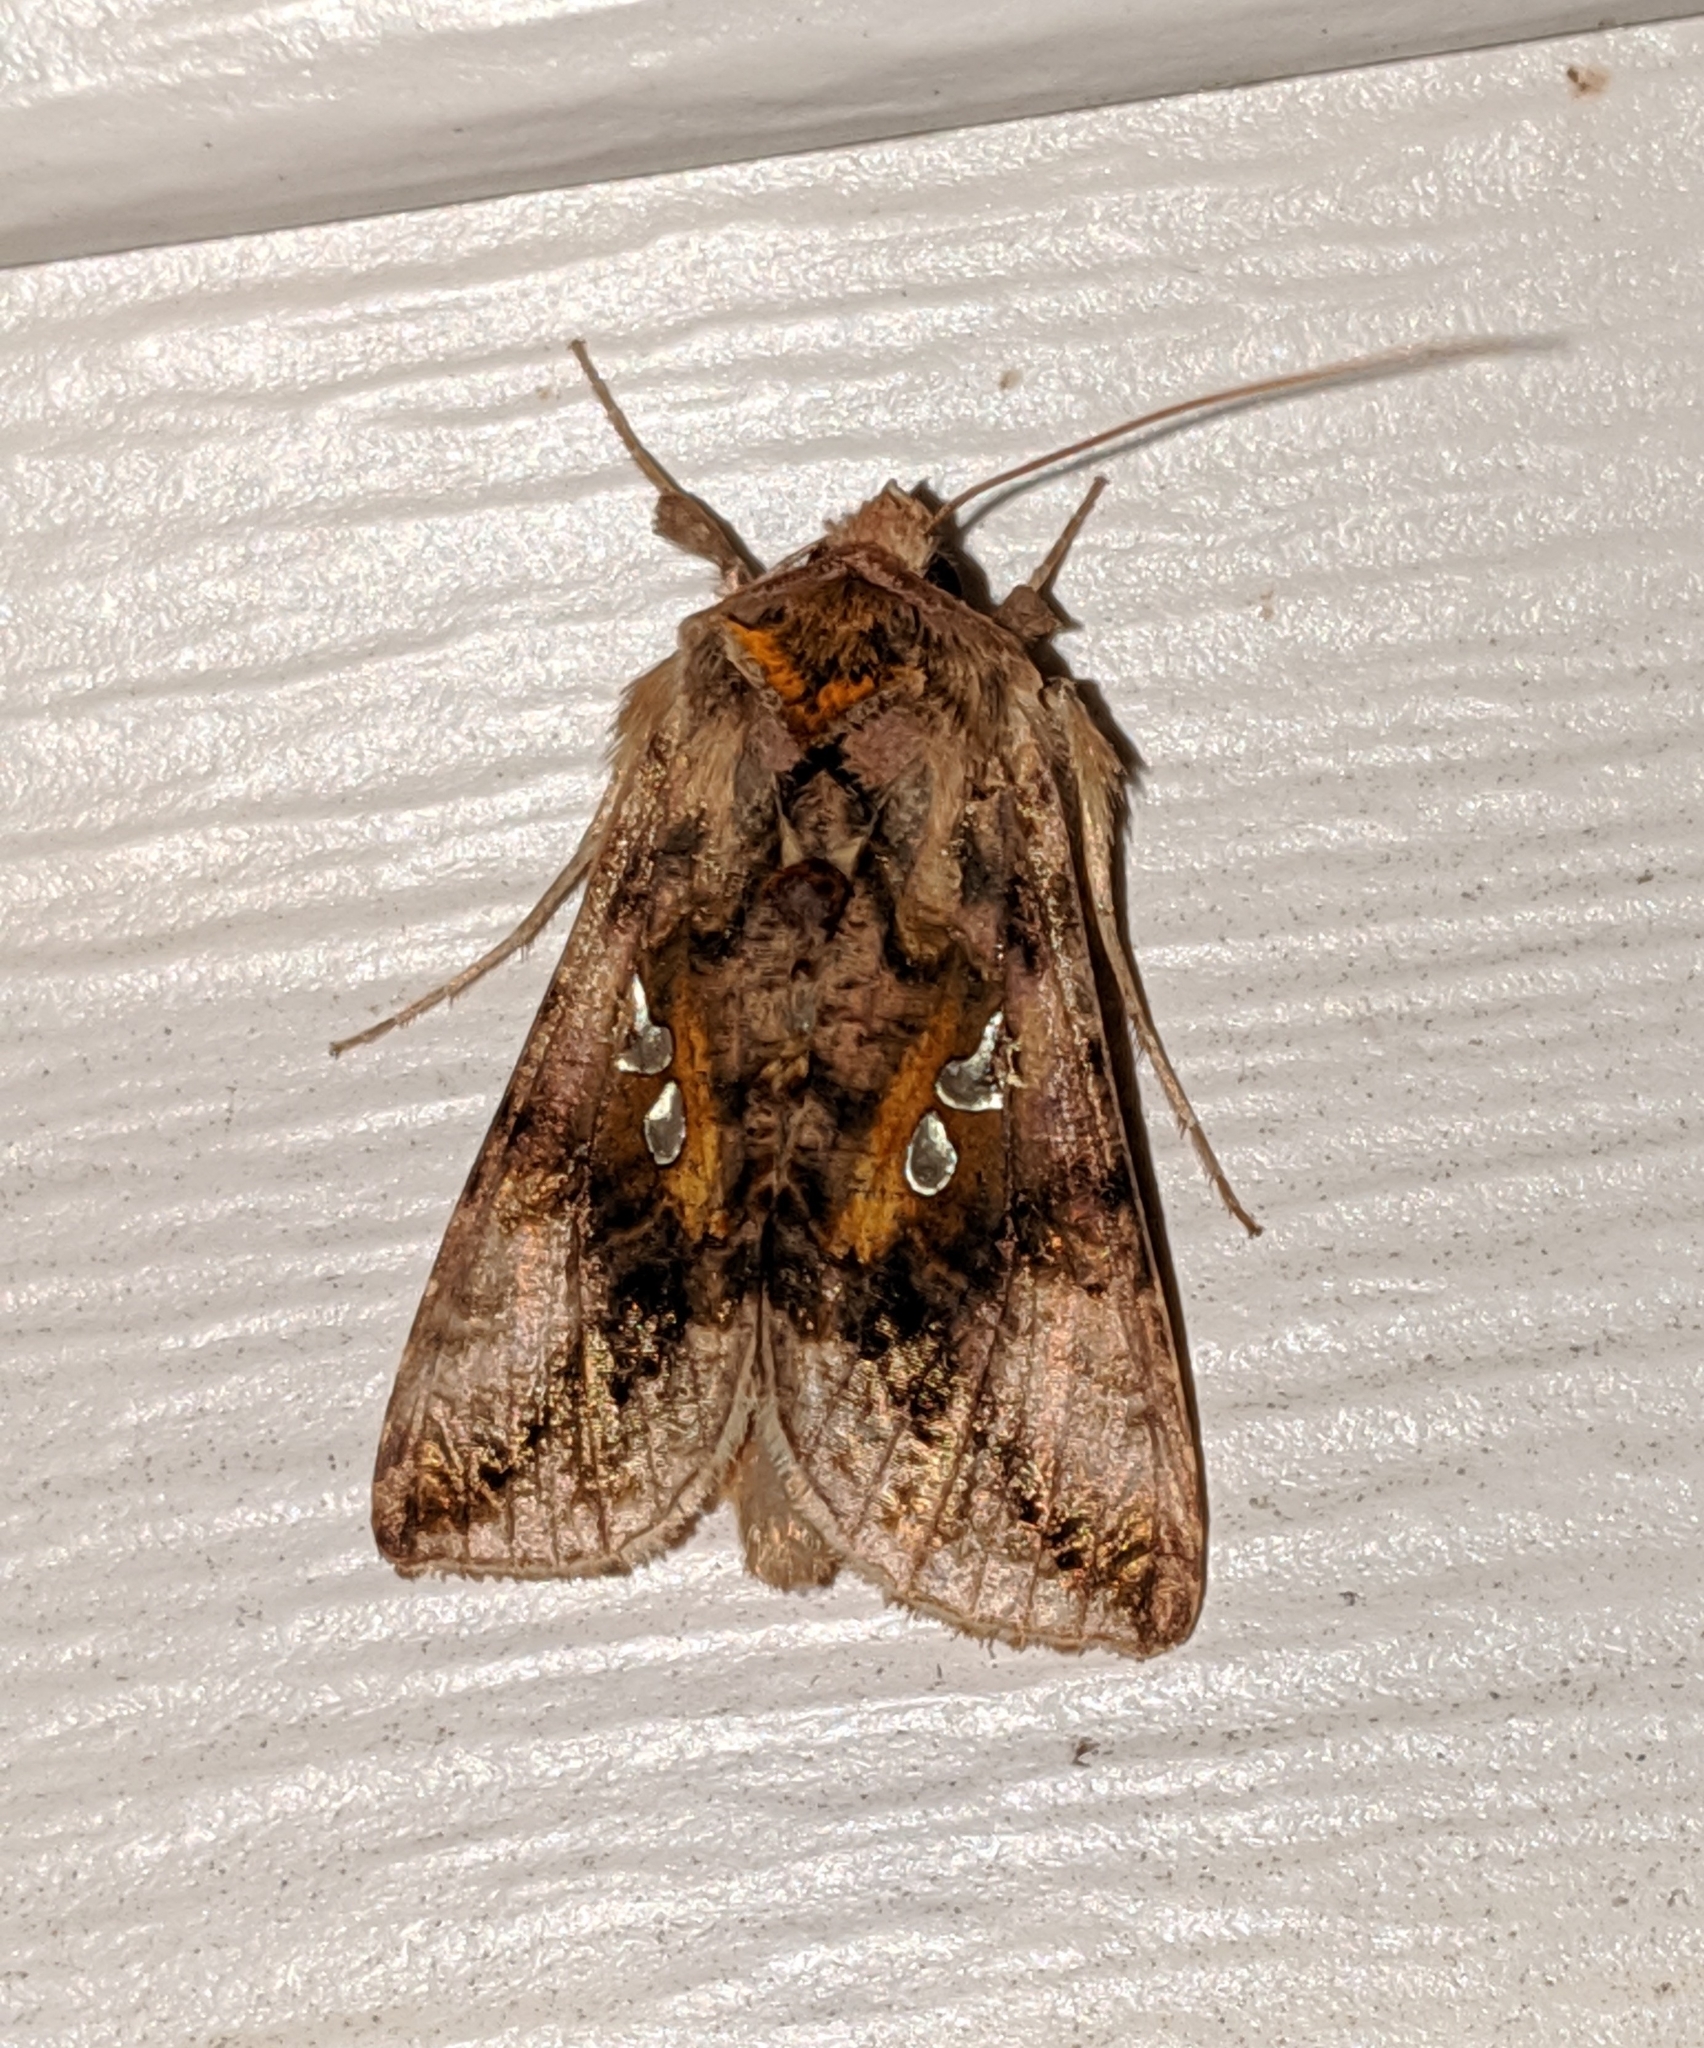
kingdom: Animalia
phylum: Arthropoda
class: Insecta
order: Lepidoptera
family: Noctuidae
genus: Autographa
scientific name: Autographa bimaculata
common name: Double-spotted spangle
